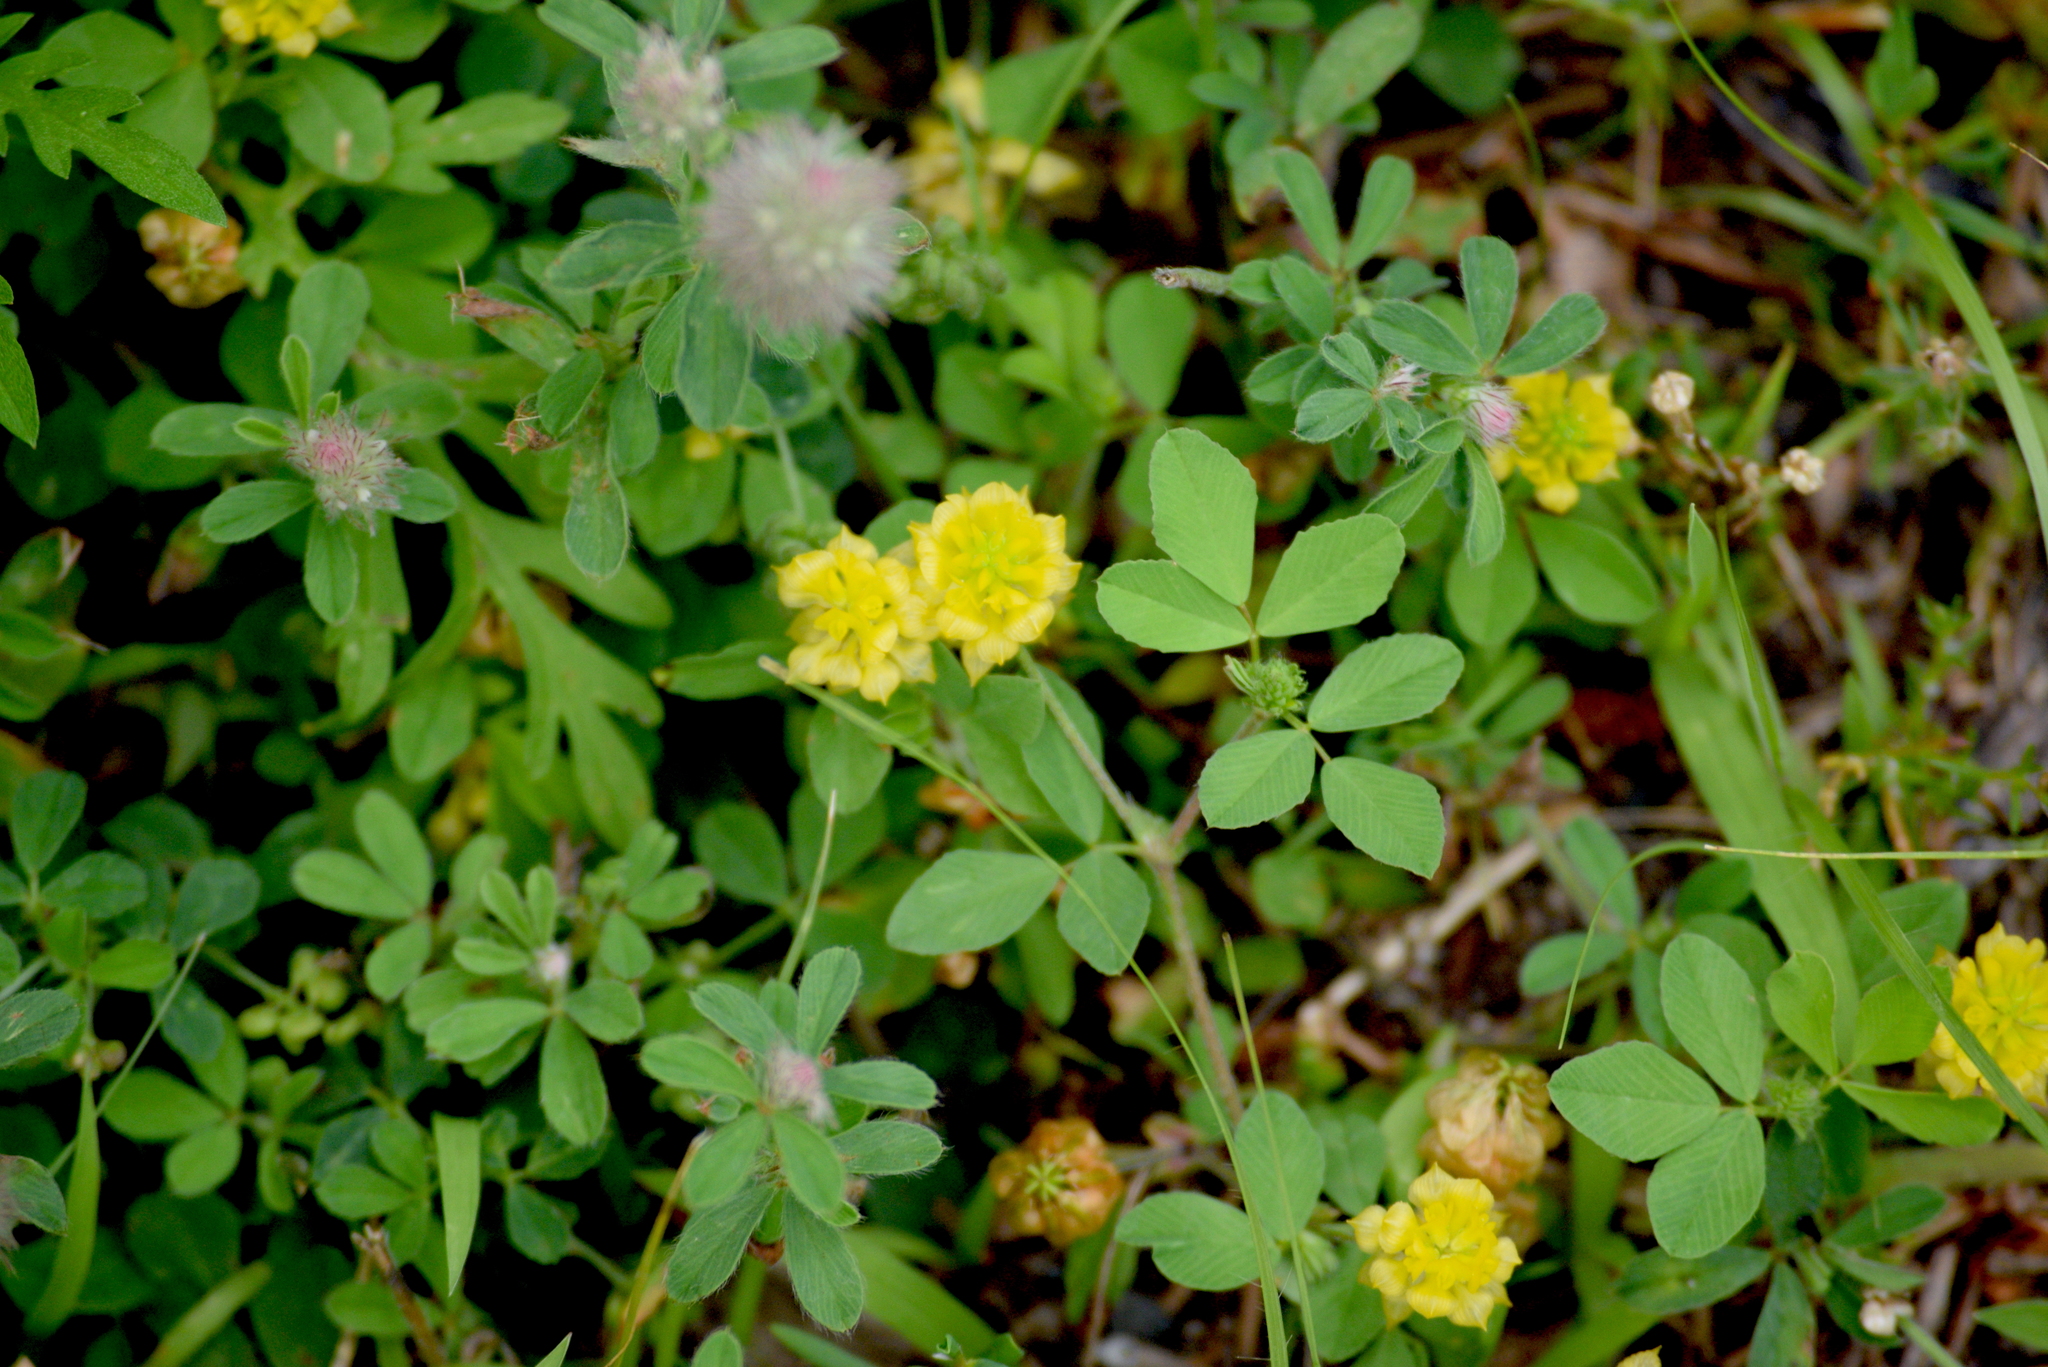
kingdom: Plantae
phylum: Tracheophyta
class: Magnoliopsida
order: Fabales
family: Fabaceae
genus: Trifolium
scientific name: Trifolium campestre
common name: Field clover
